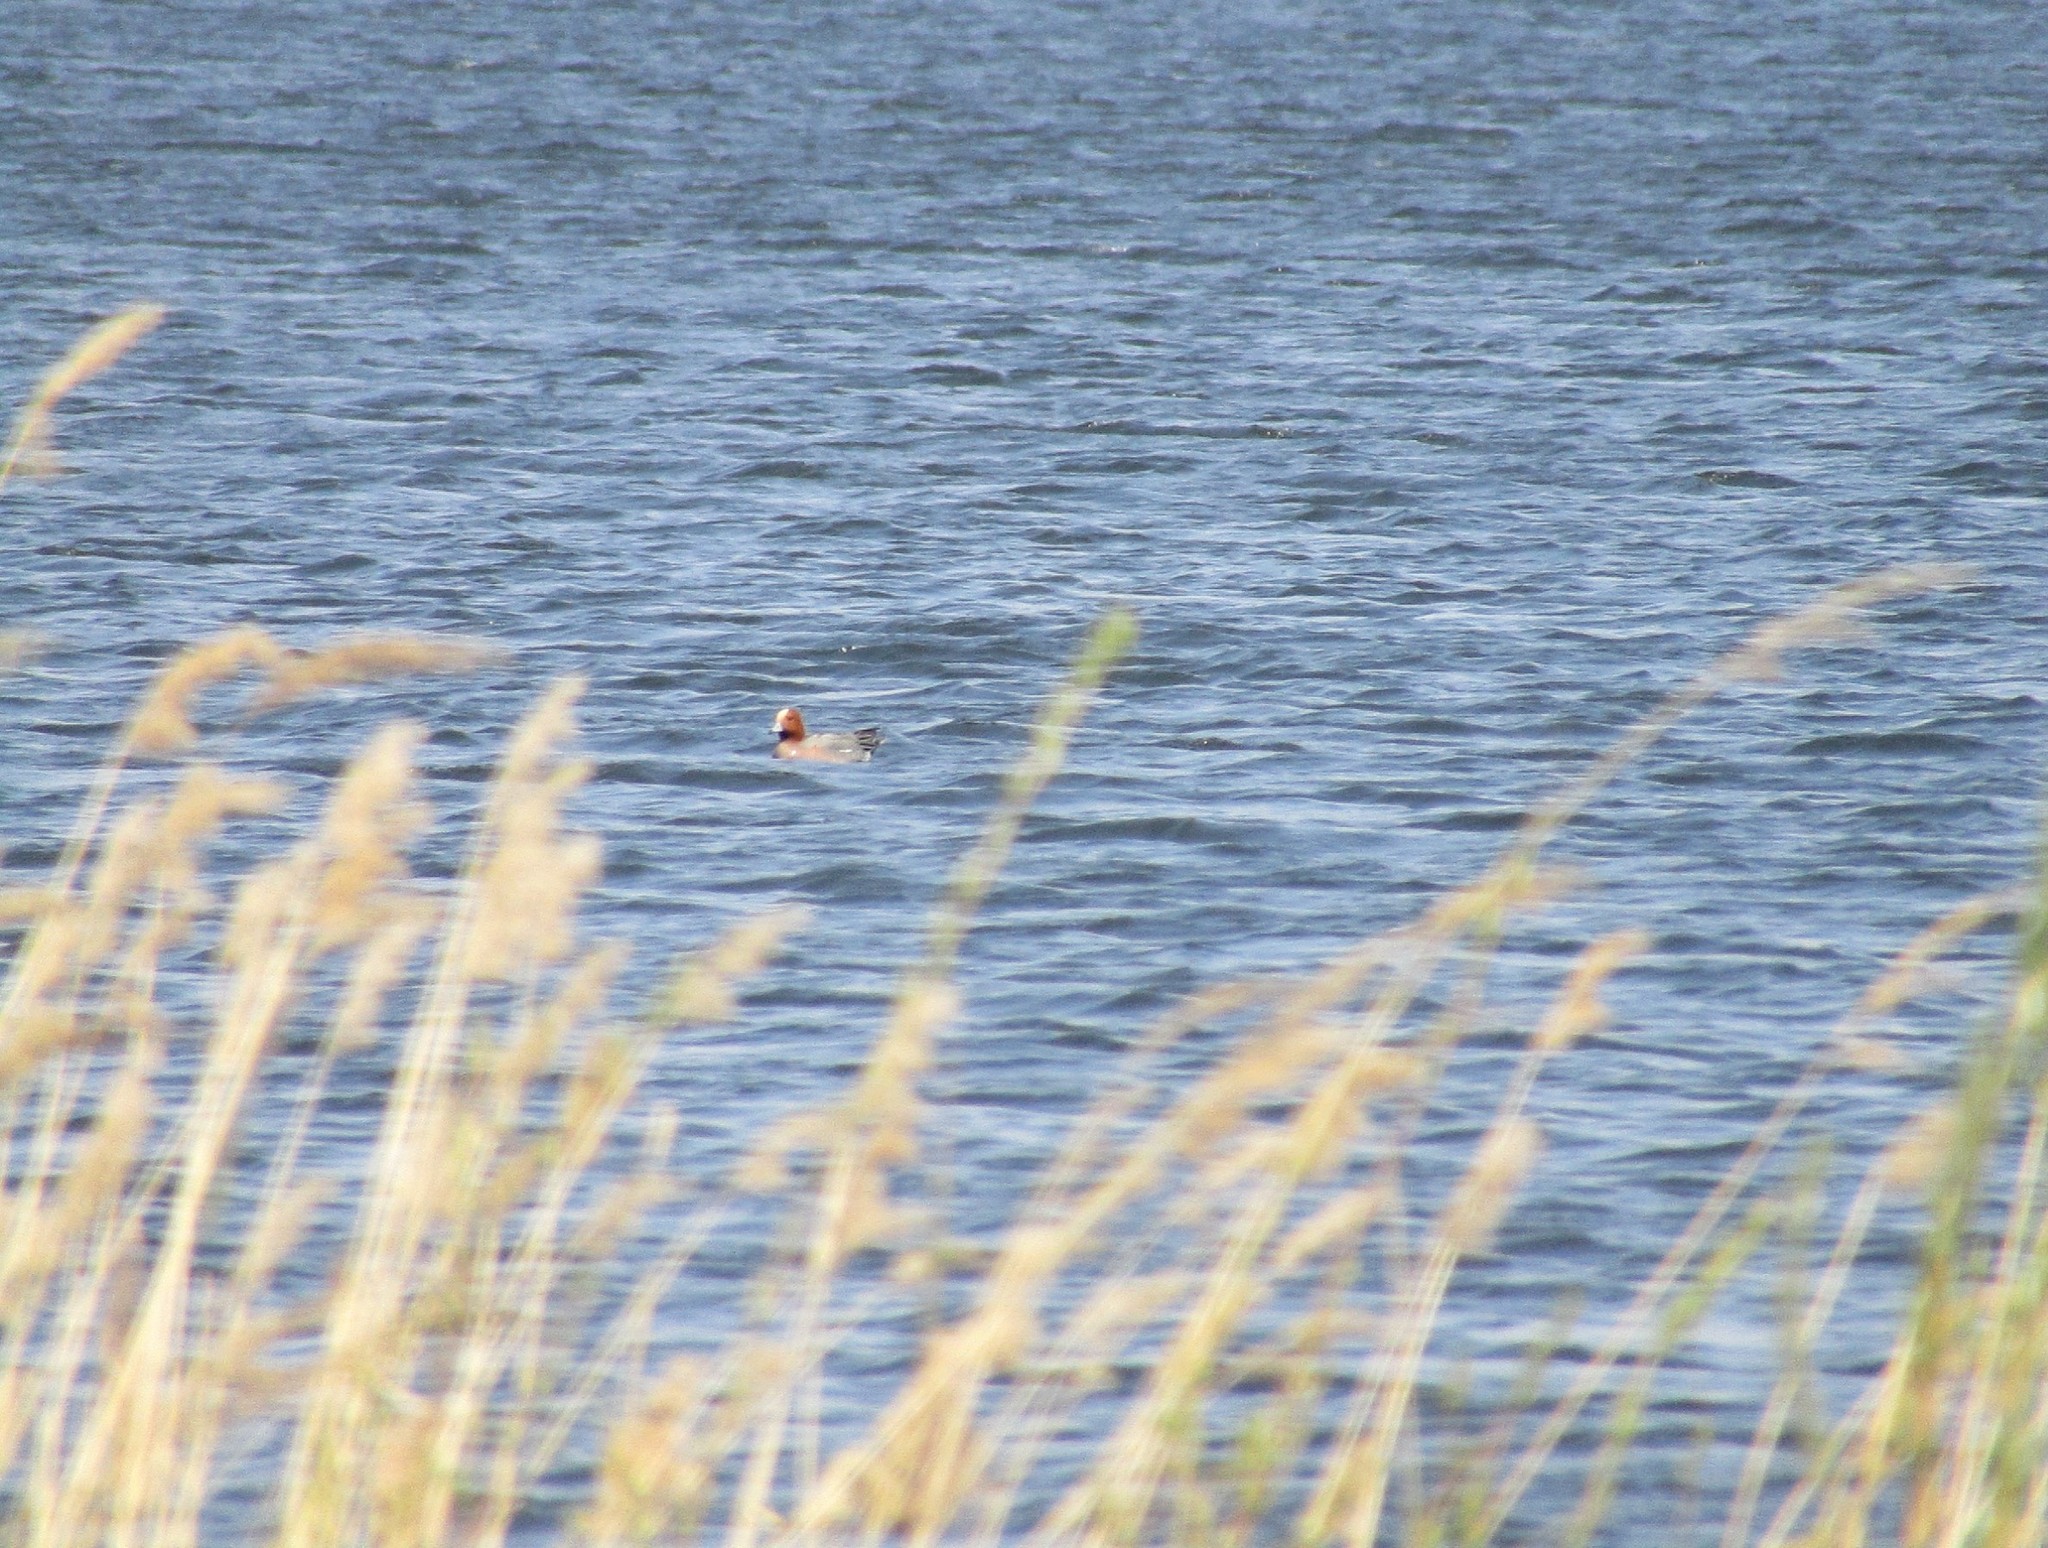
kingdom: Animalia
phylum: Chordata
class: Aves
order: Anseriformes
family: Anatidae
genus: Mareca
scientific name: Mareca penelope
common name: Eurasian wigeon
